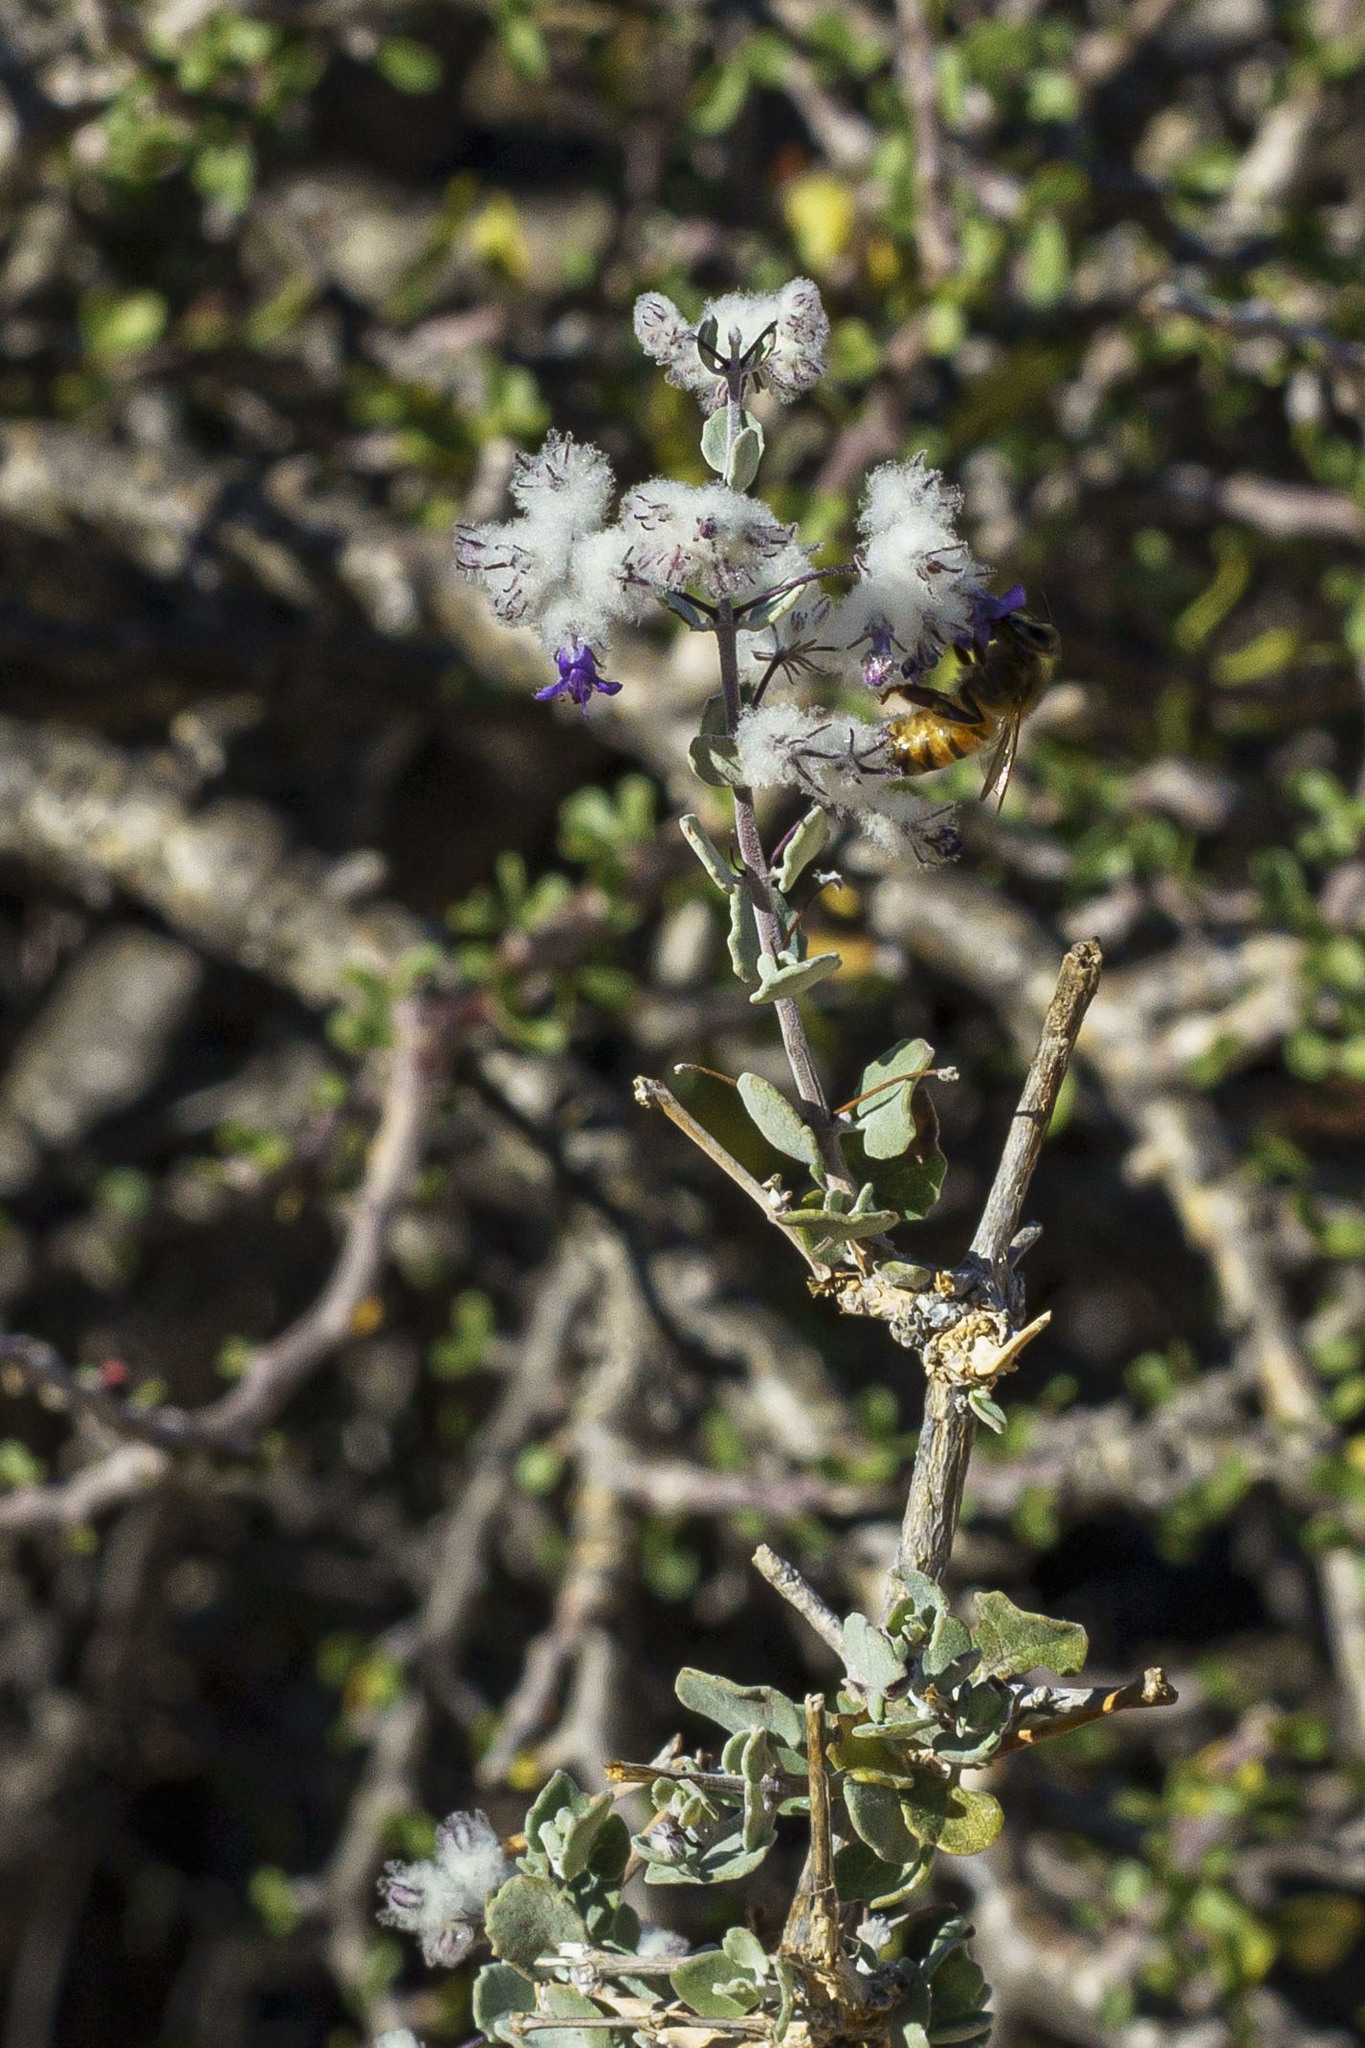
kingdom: Plantae
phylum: Tracheophyta
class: Magnoliopsida
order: Lamiales
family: Lamiaceae
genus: Condea
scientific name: Condea laniflora
